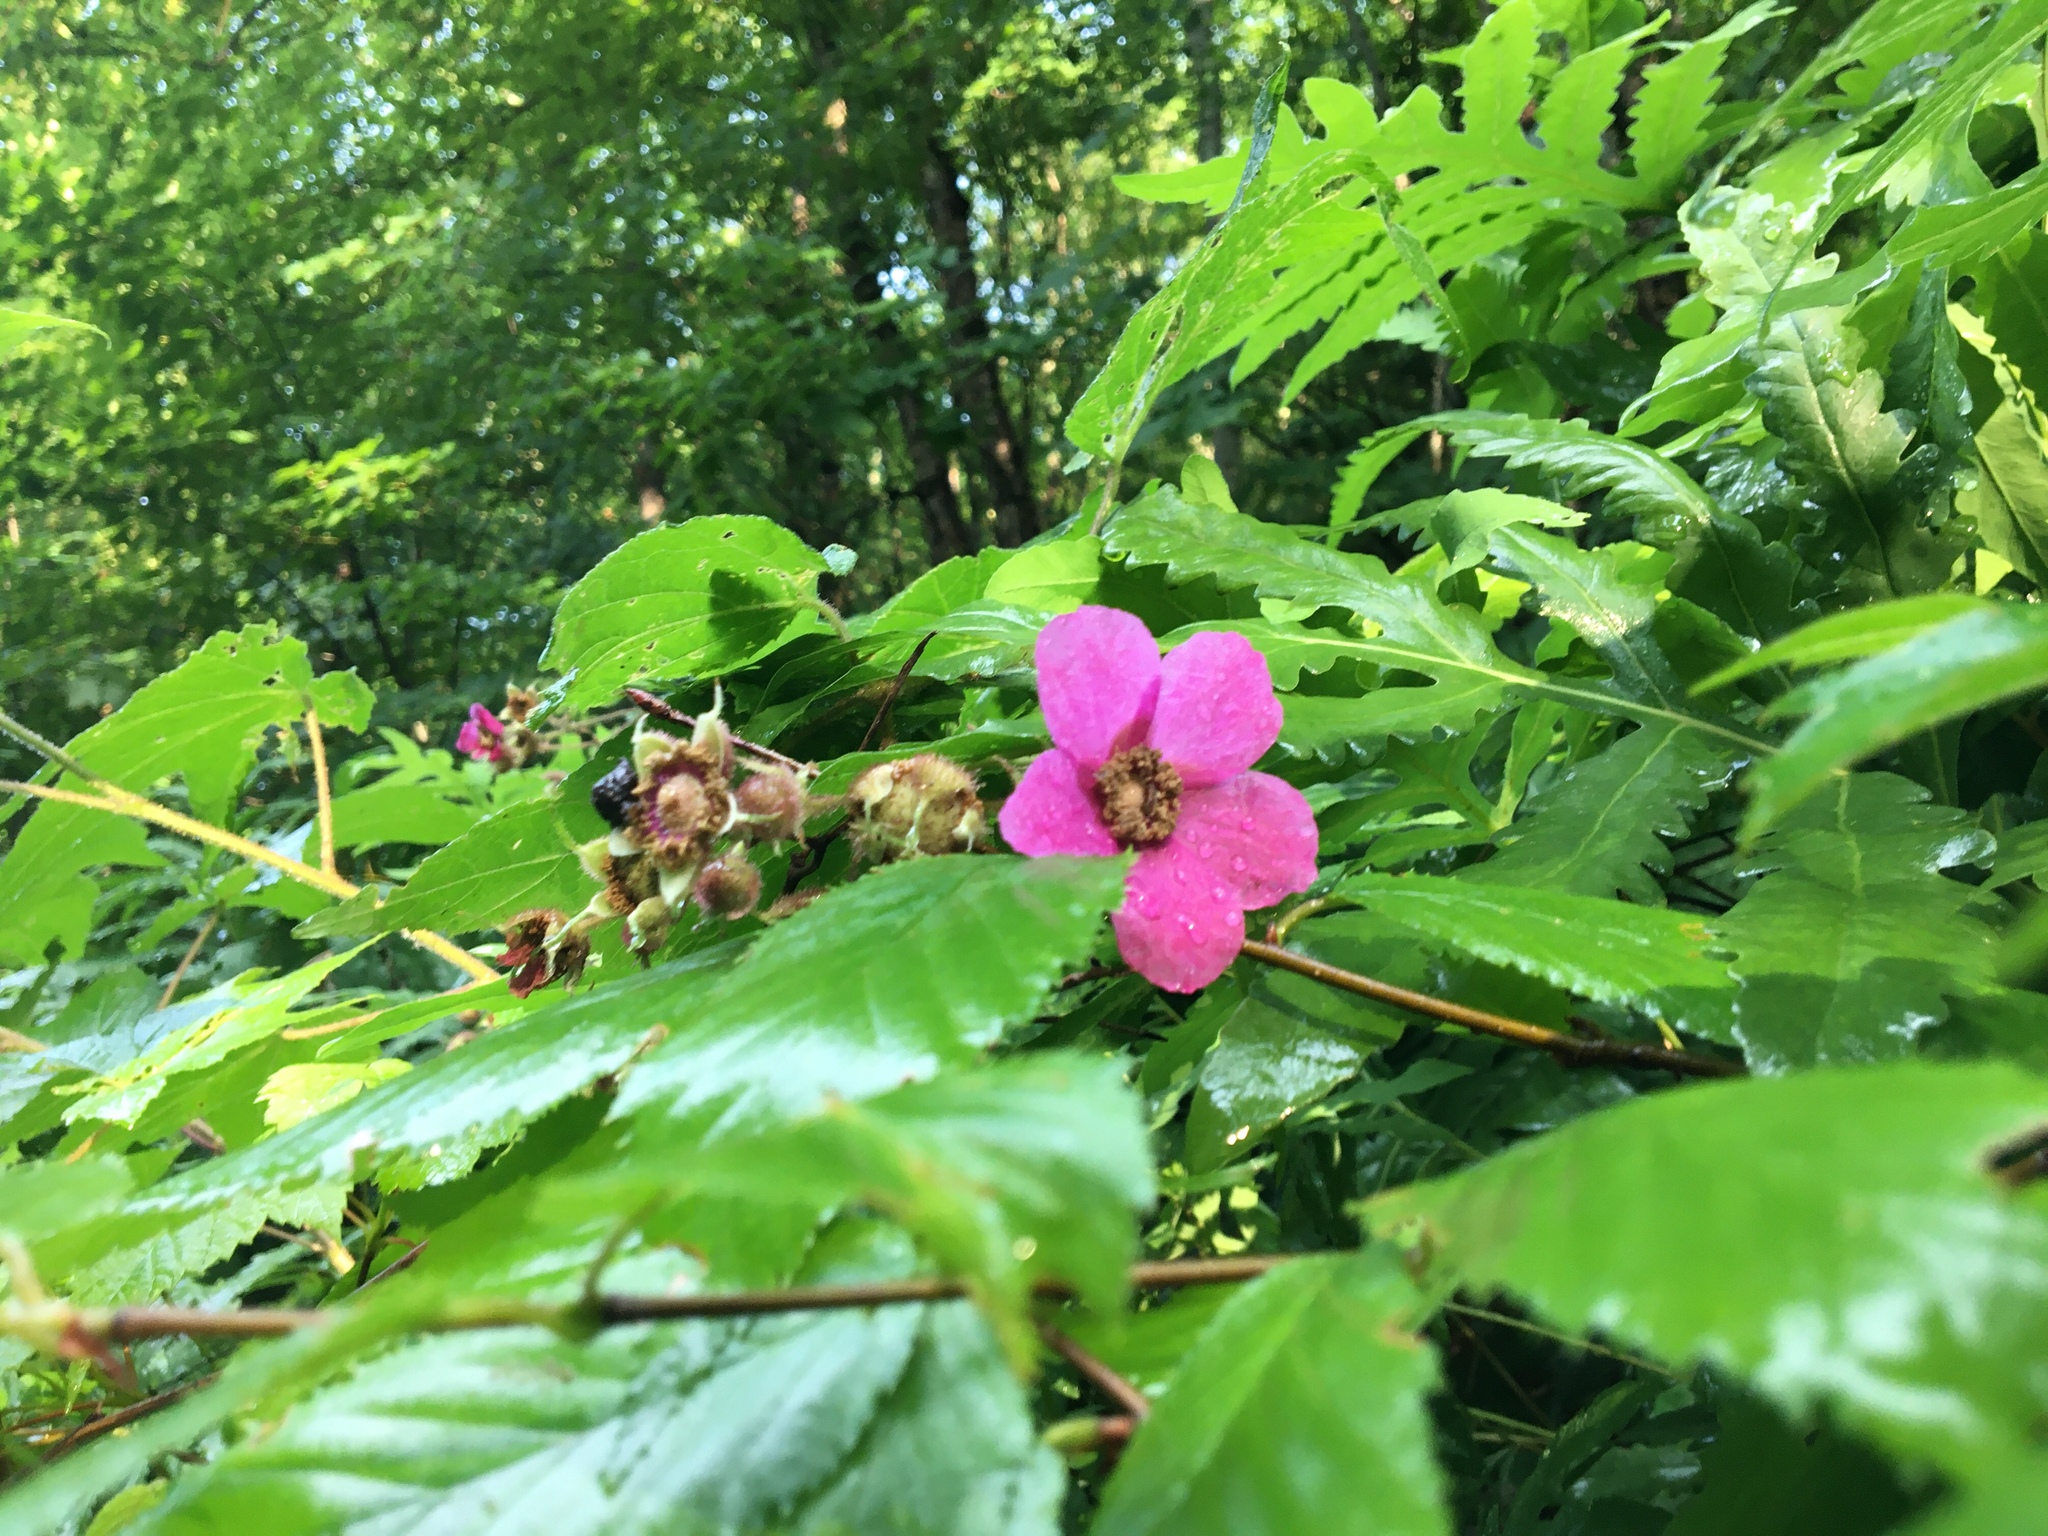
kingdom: Plantae
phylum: Tracheophyta
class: Magnoliopsida
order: Rosales
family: Rosaceae
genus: Rubus
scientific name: Rubus odoratus
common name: Purple-flowered raspberry
